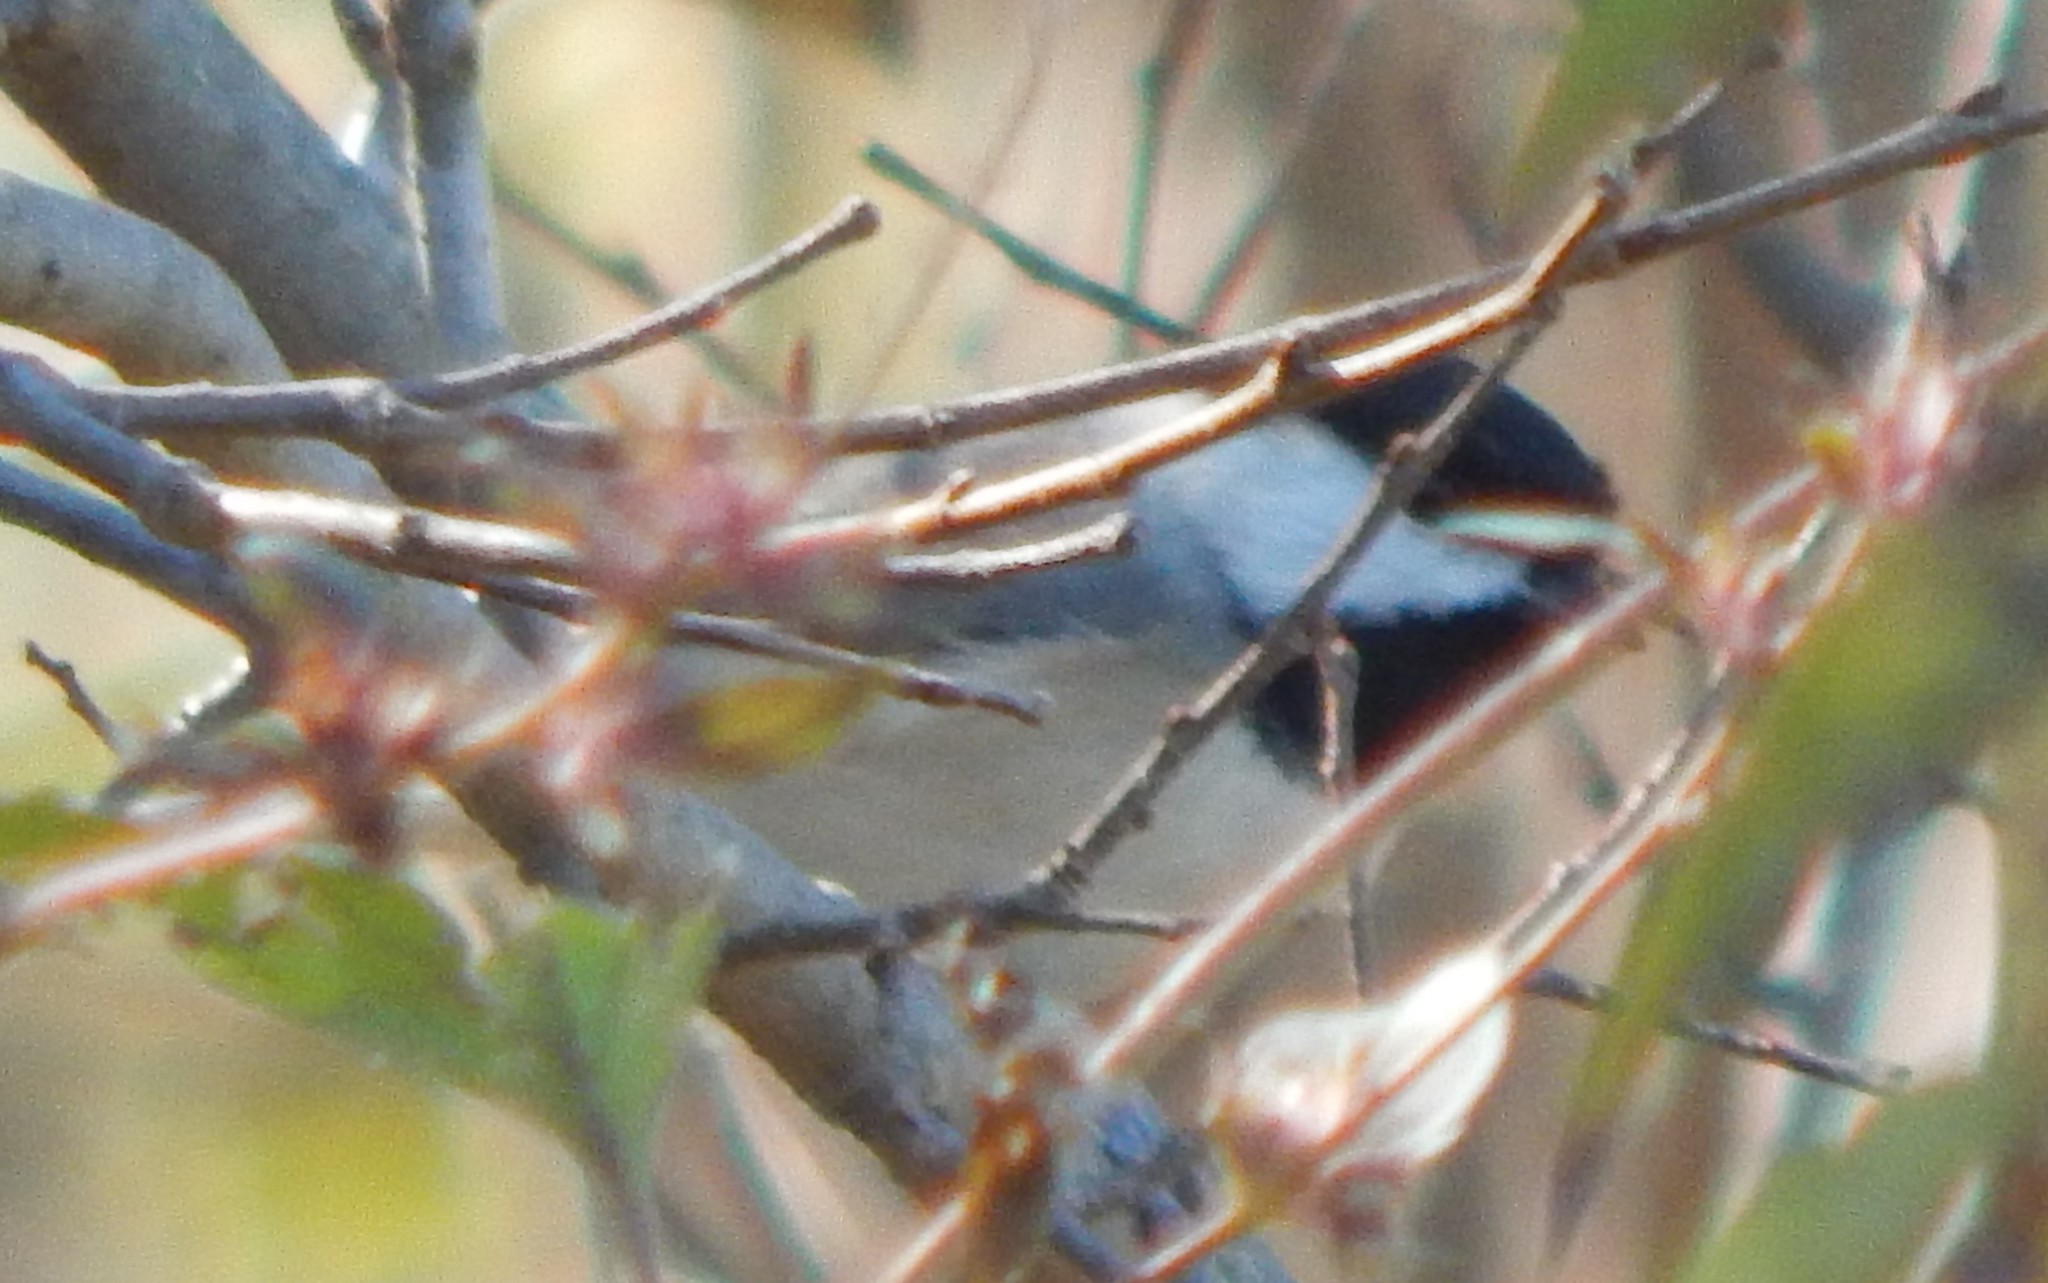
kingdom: Animalia
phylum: Chordata
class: Aves
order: Passeriformes
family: Paridae
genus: Poecile
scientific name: Poecile carolinensis
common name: Carolina chickadee
